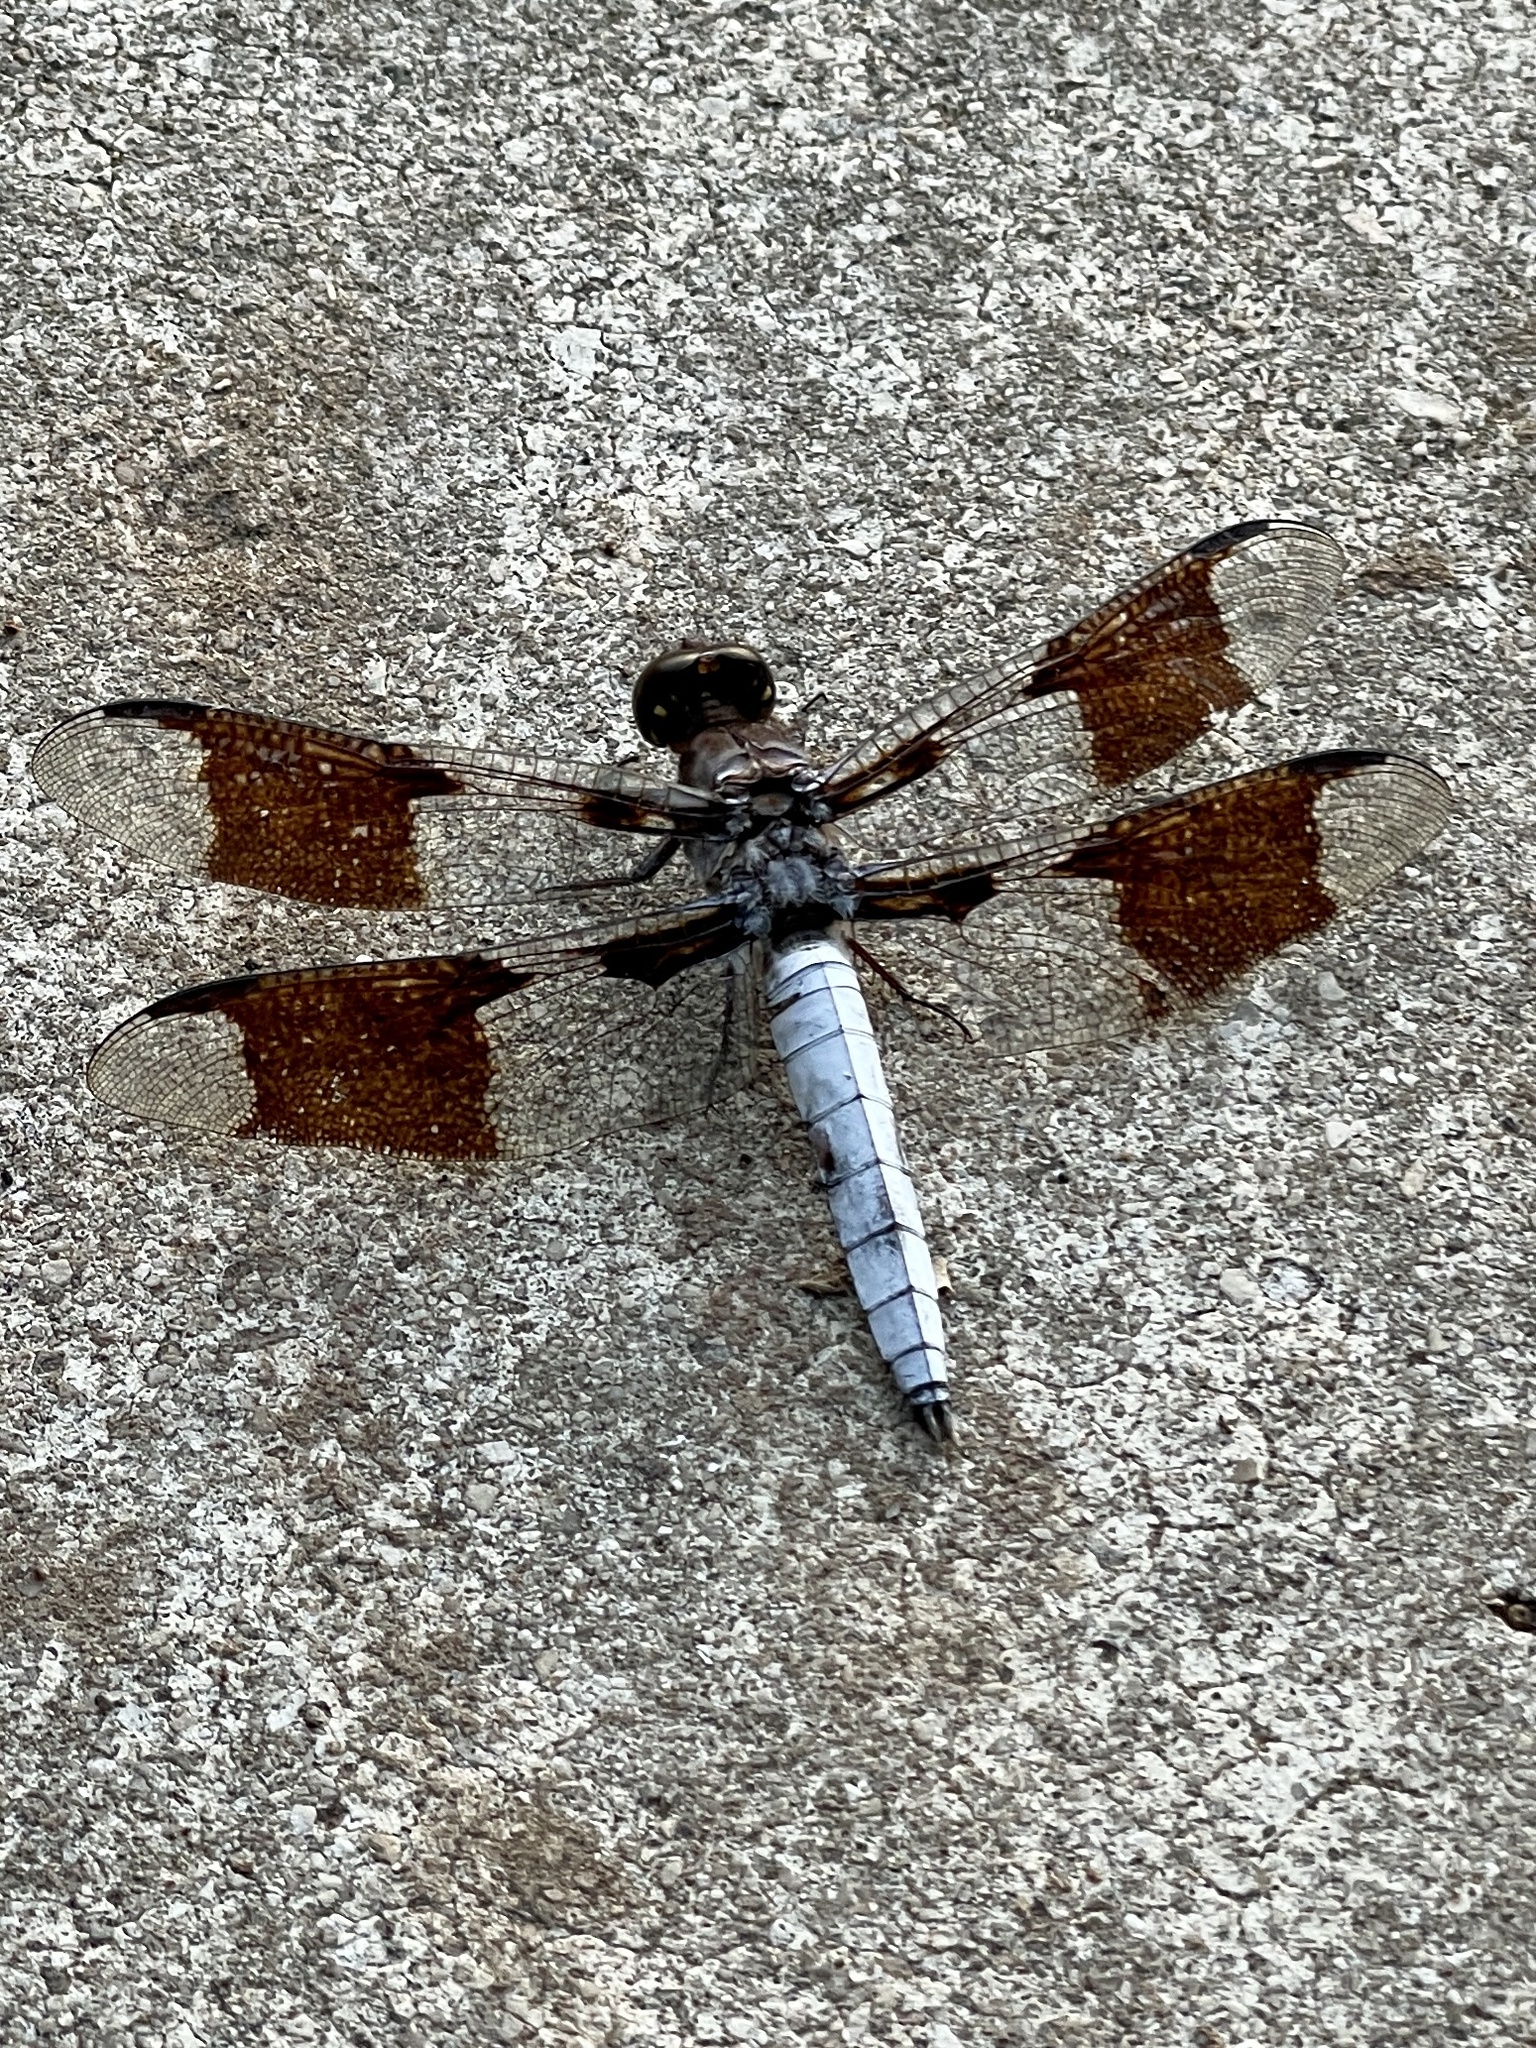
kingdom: Animalia
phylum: Arthropoda
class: Insecta
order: Odonata
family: Libellulidae
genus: Plathemis
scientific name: Plathemis lydia
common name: Common whitetail
